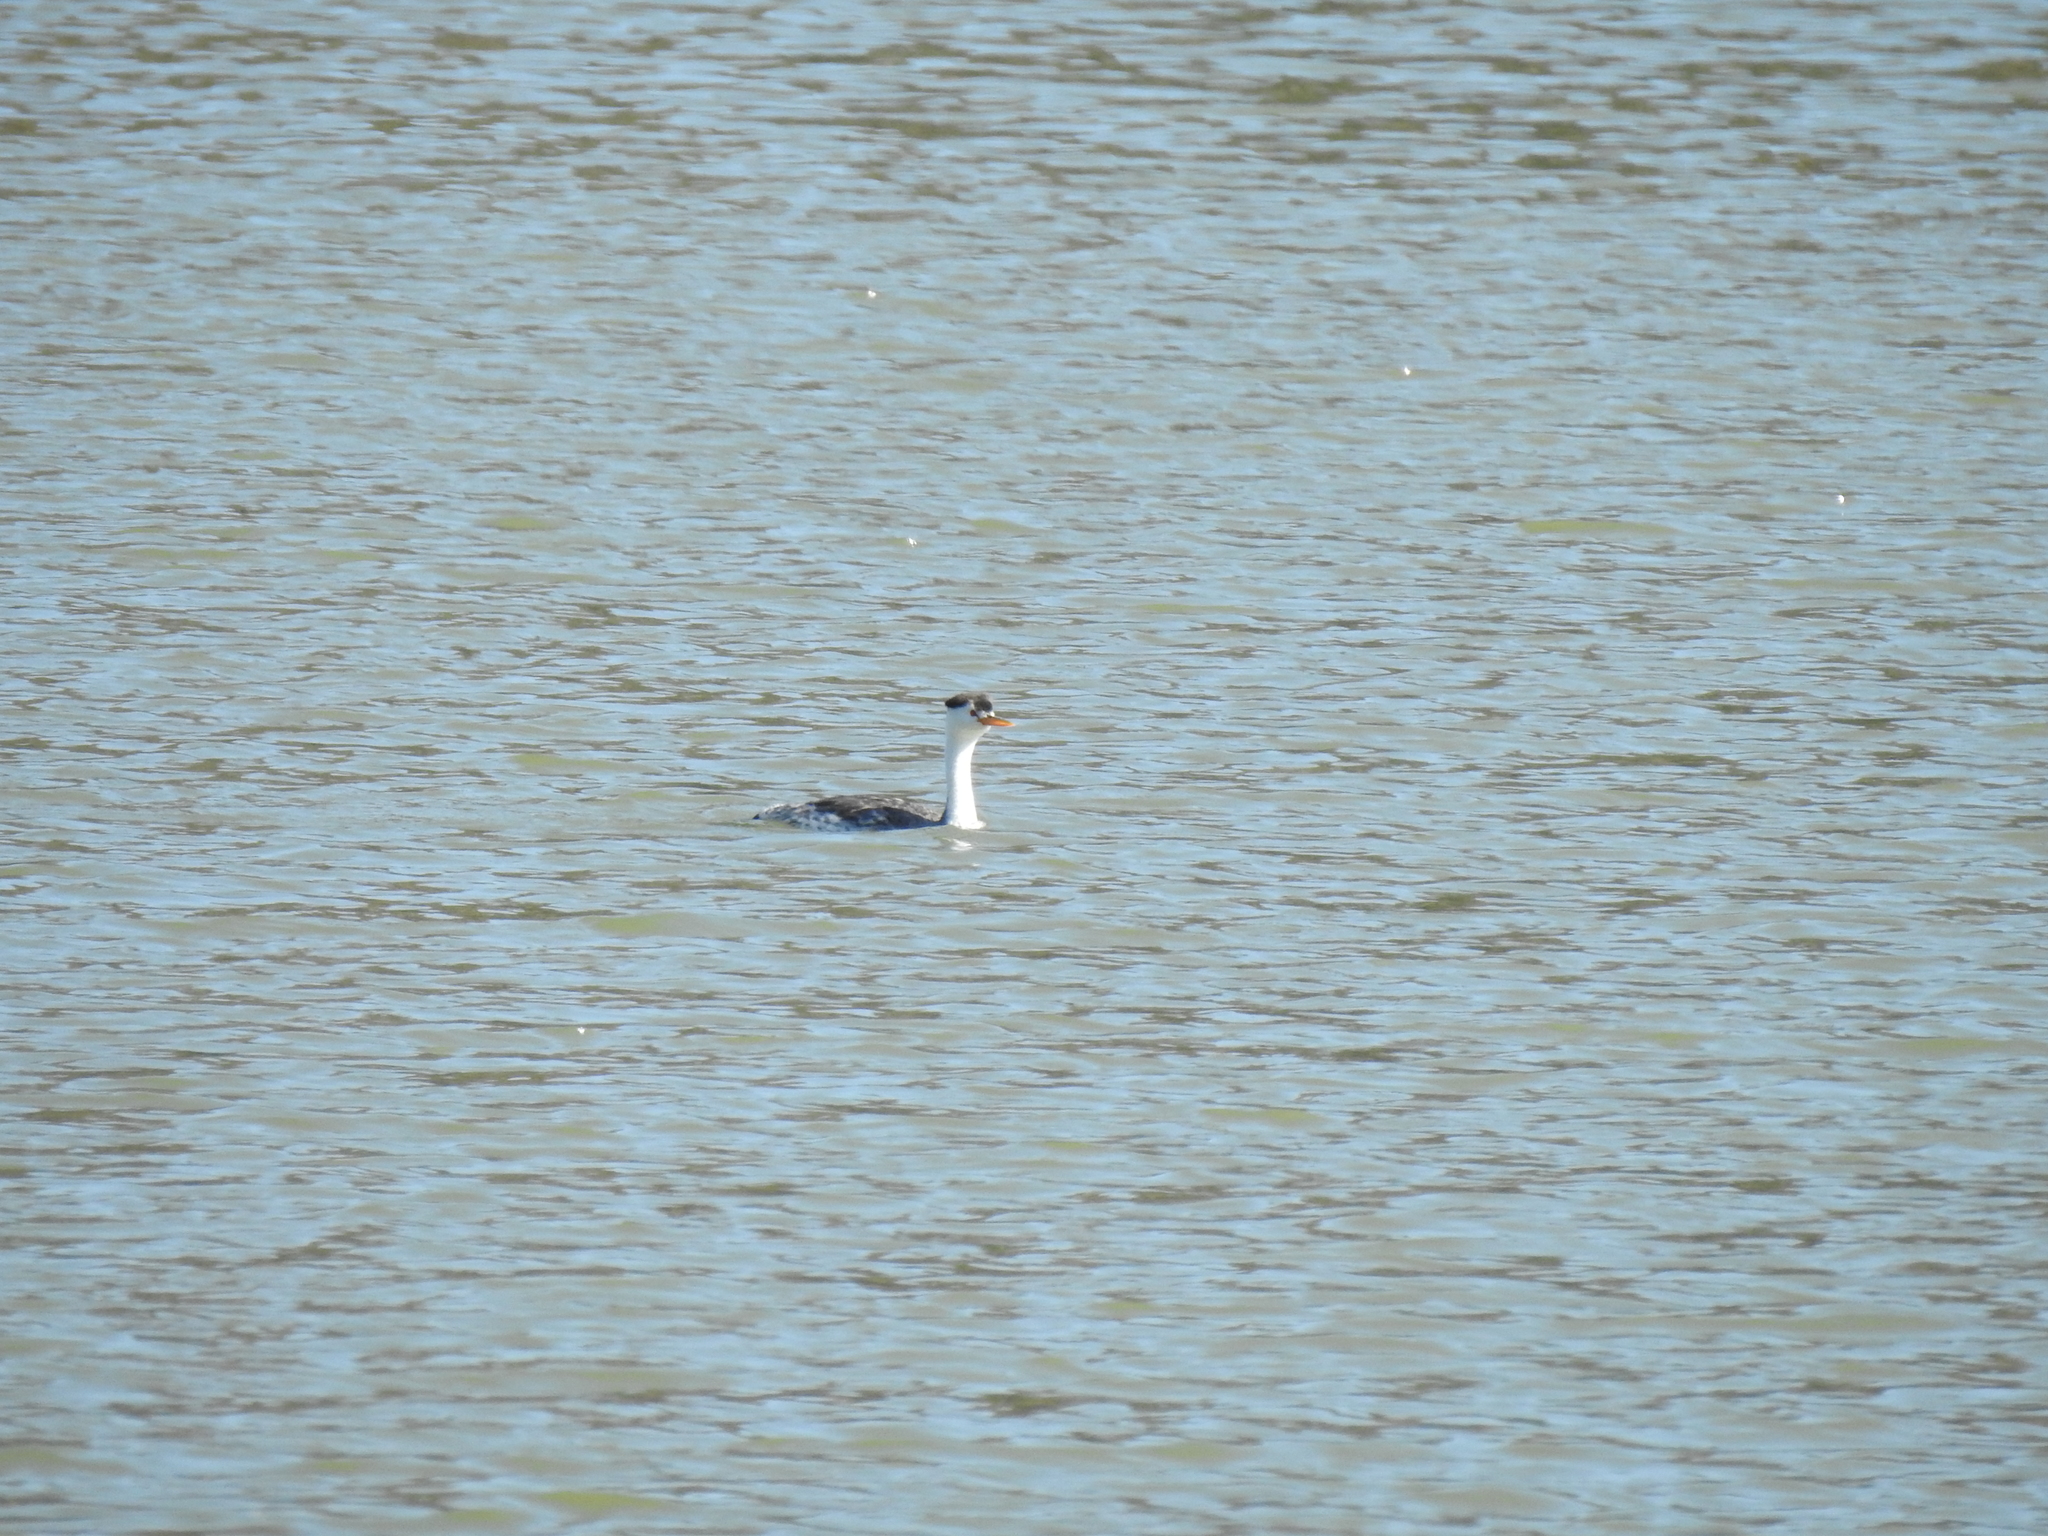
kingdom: Animalia
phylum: Chordata
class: Aves
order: Podicipediformes
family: Podicipedidae
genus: Aechmophorus
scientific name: Aechmophorus clarkii
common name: Clark's grebe
